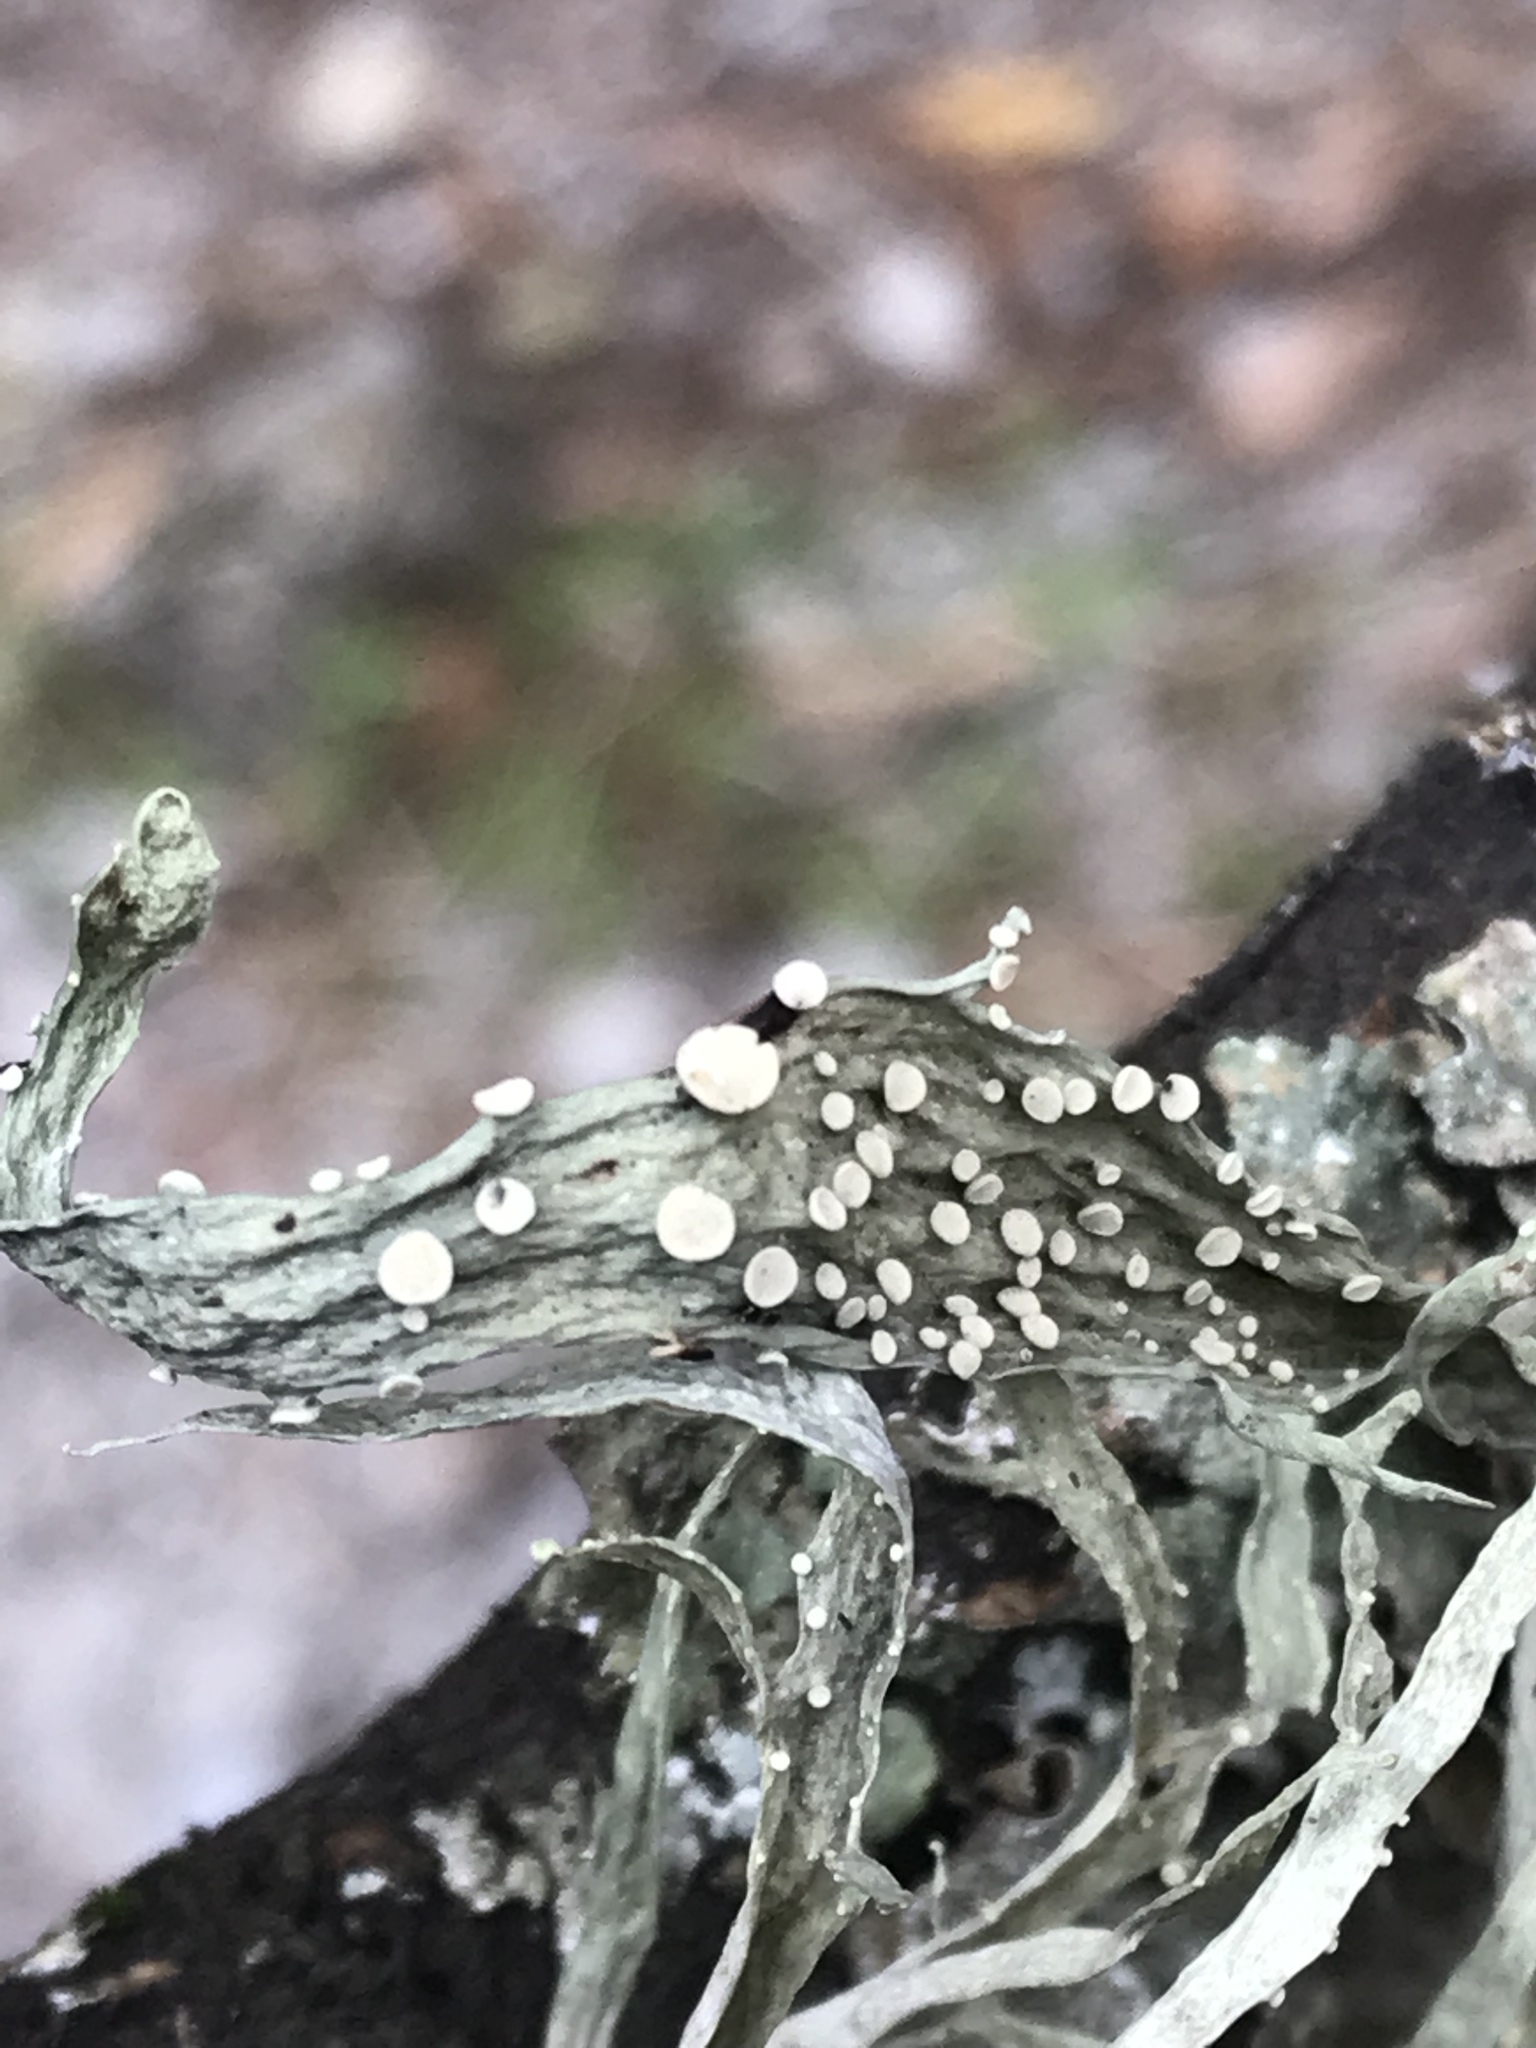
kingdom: Fungi
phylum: Ascomycota
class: Lecanoromycetes
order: Lecanorales
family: Ramalinaceae
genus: Ramalina
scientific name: Ramalina celastri
